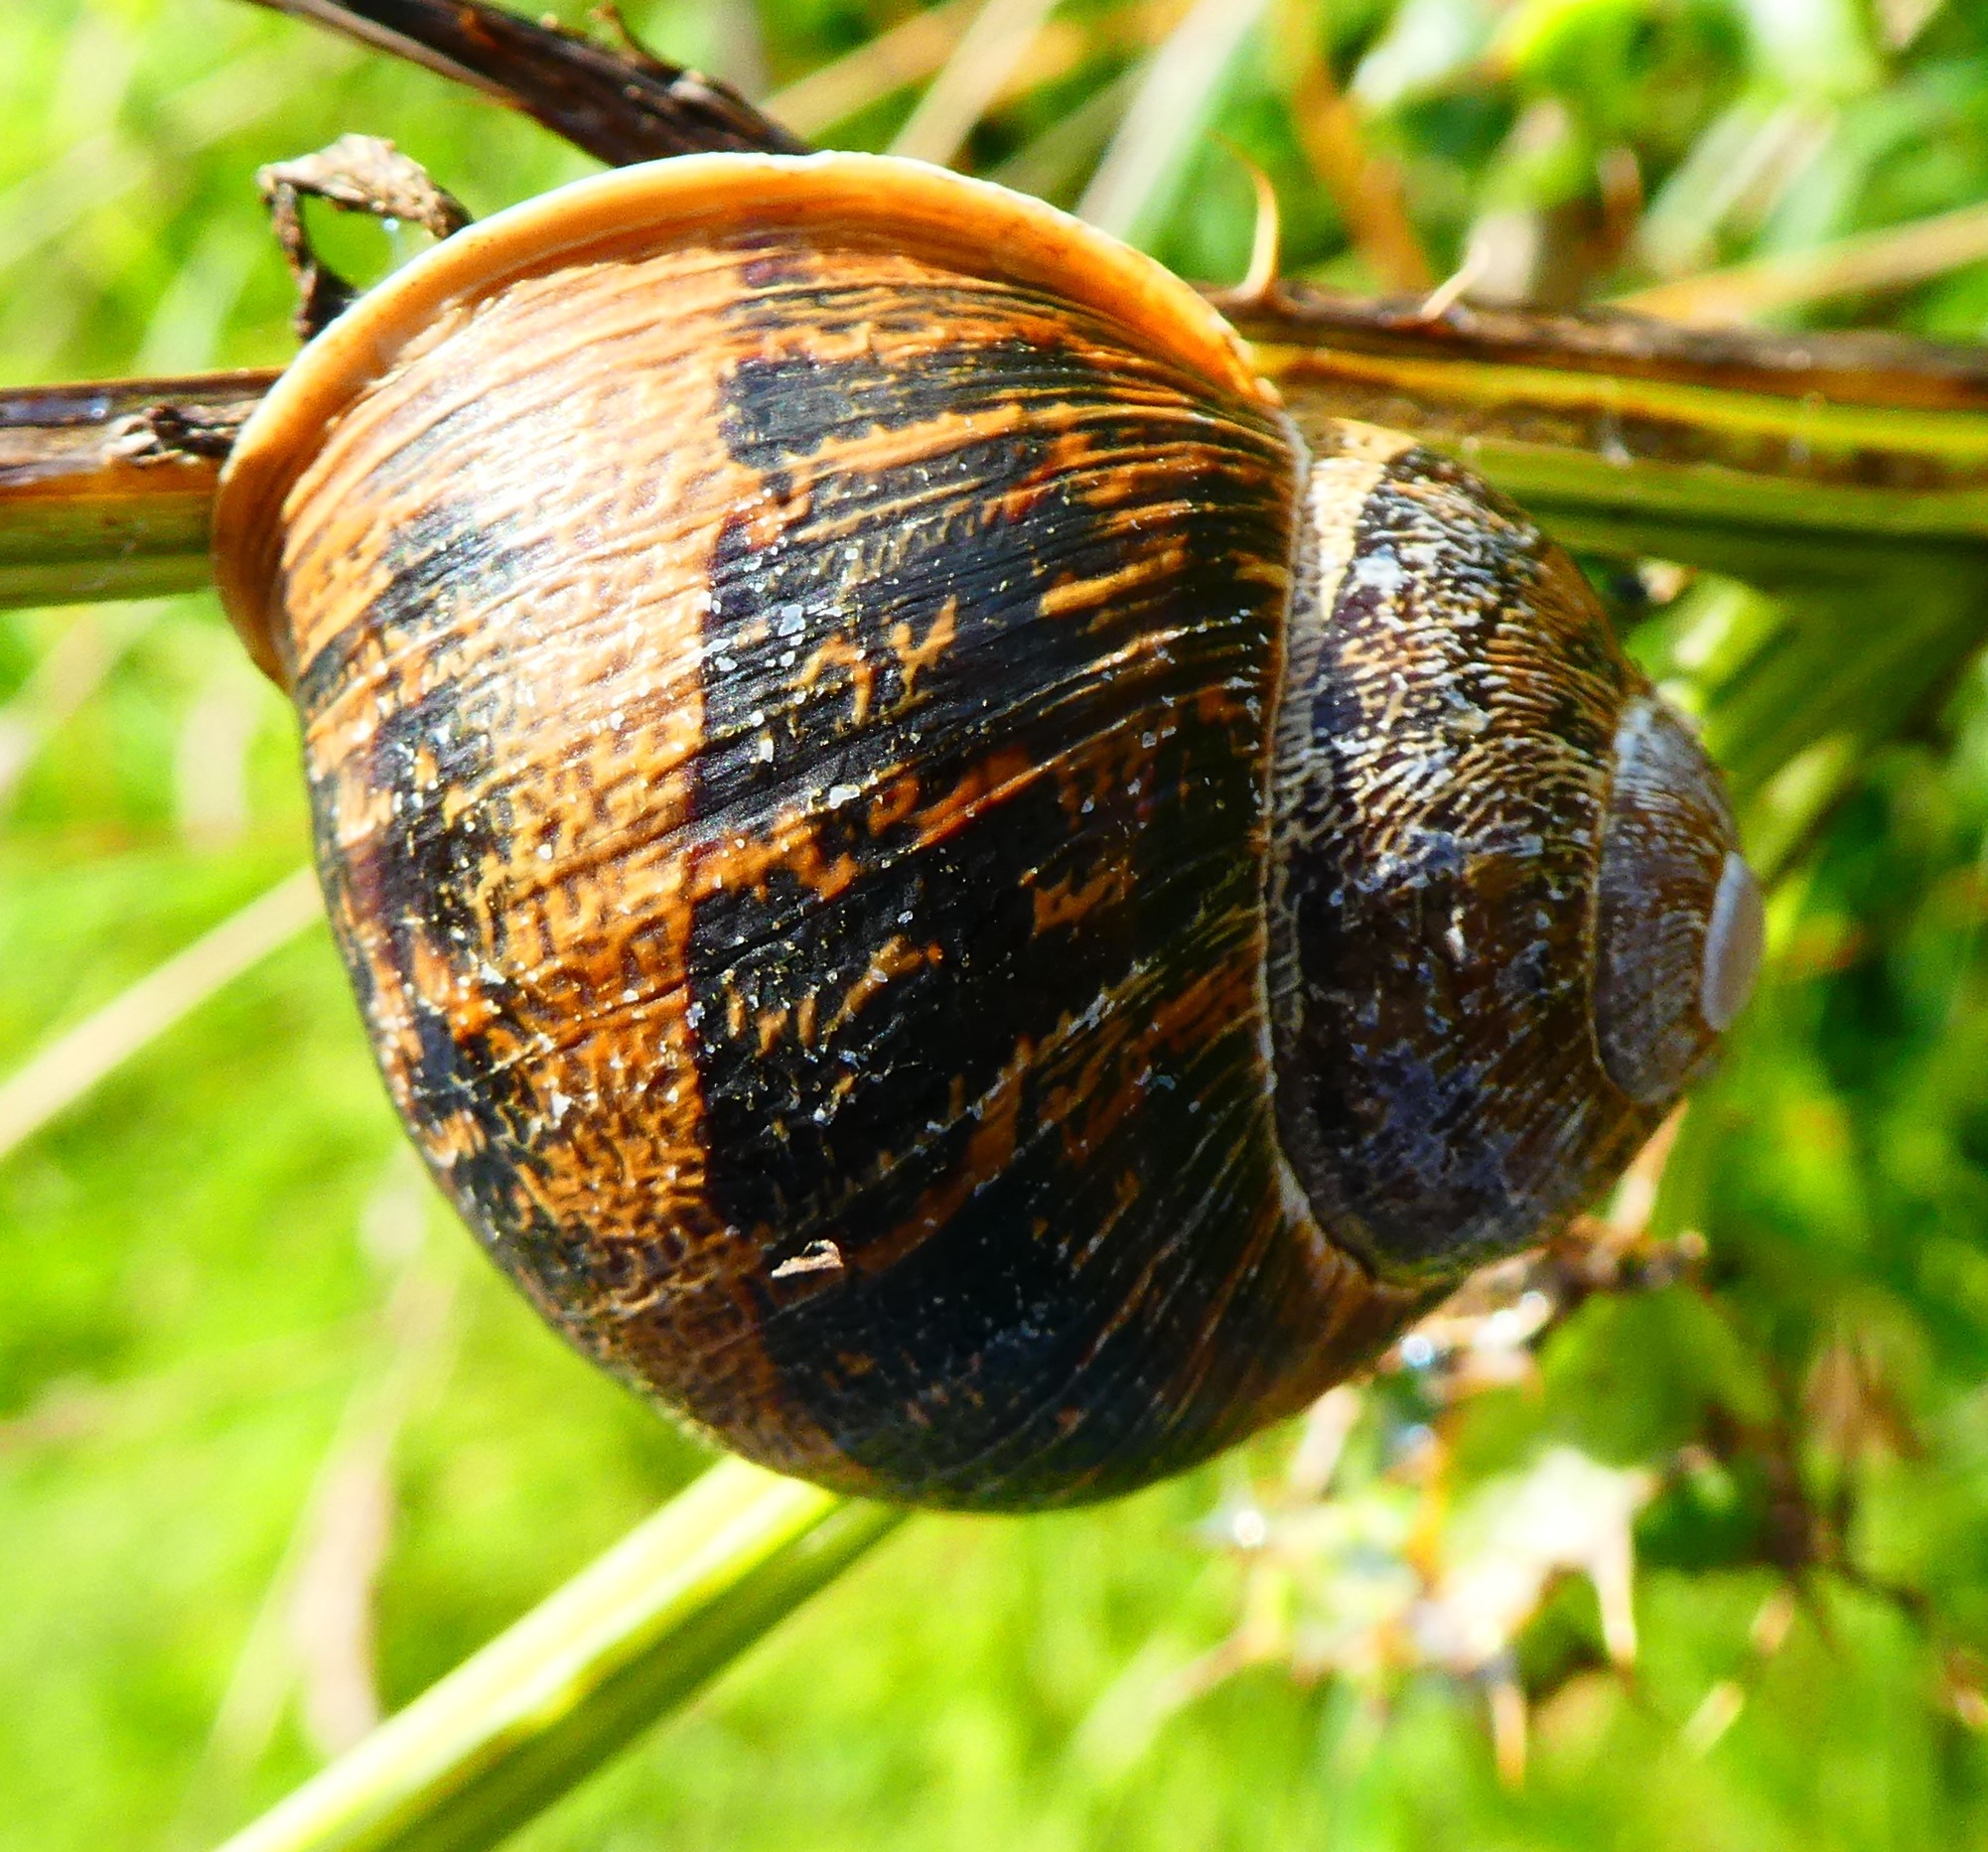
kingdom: Animalia
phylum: Mollusca
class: Gastropoda
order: Stylommatophora
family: Helicidae
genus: Cornu
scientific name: Cornu aspersum
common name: Brown garden snail
